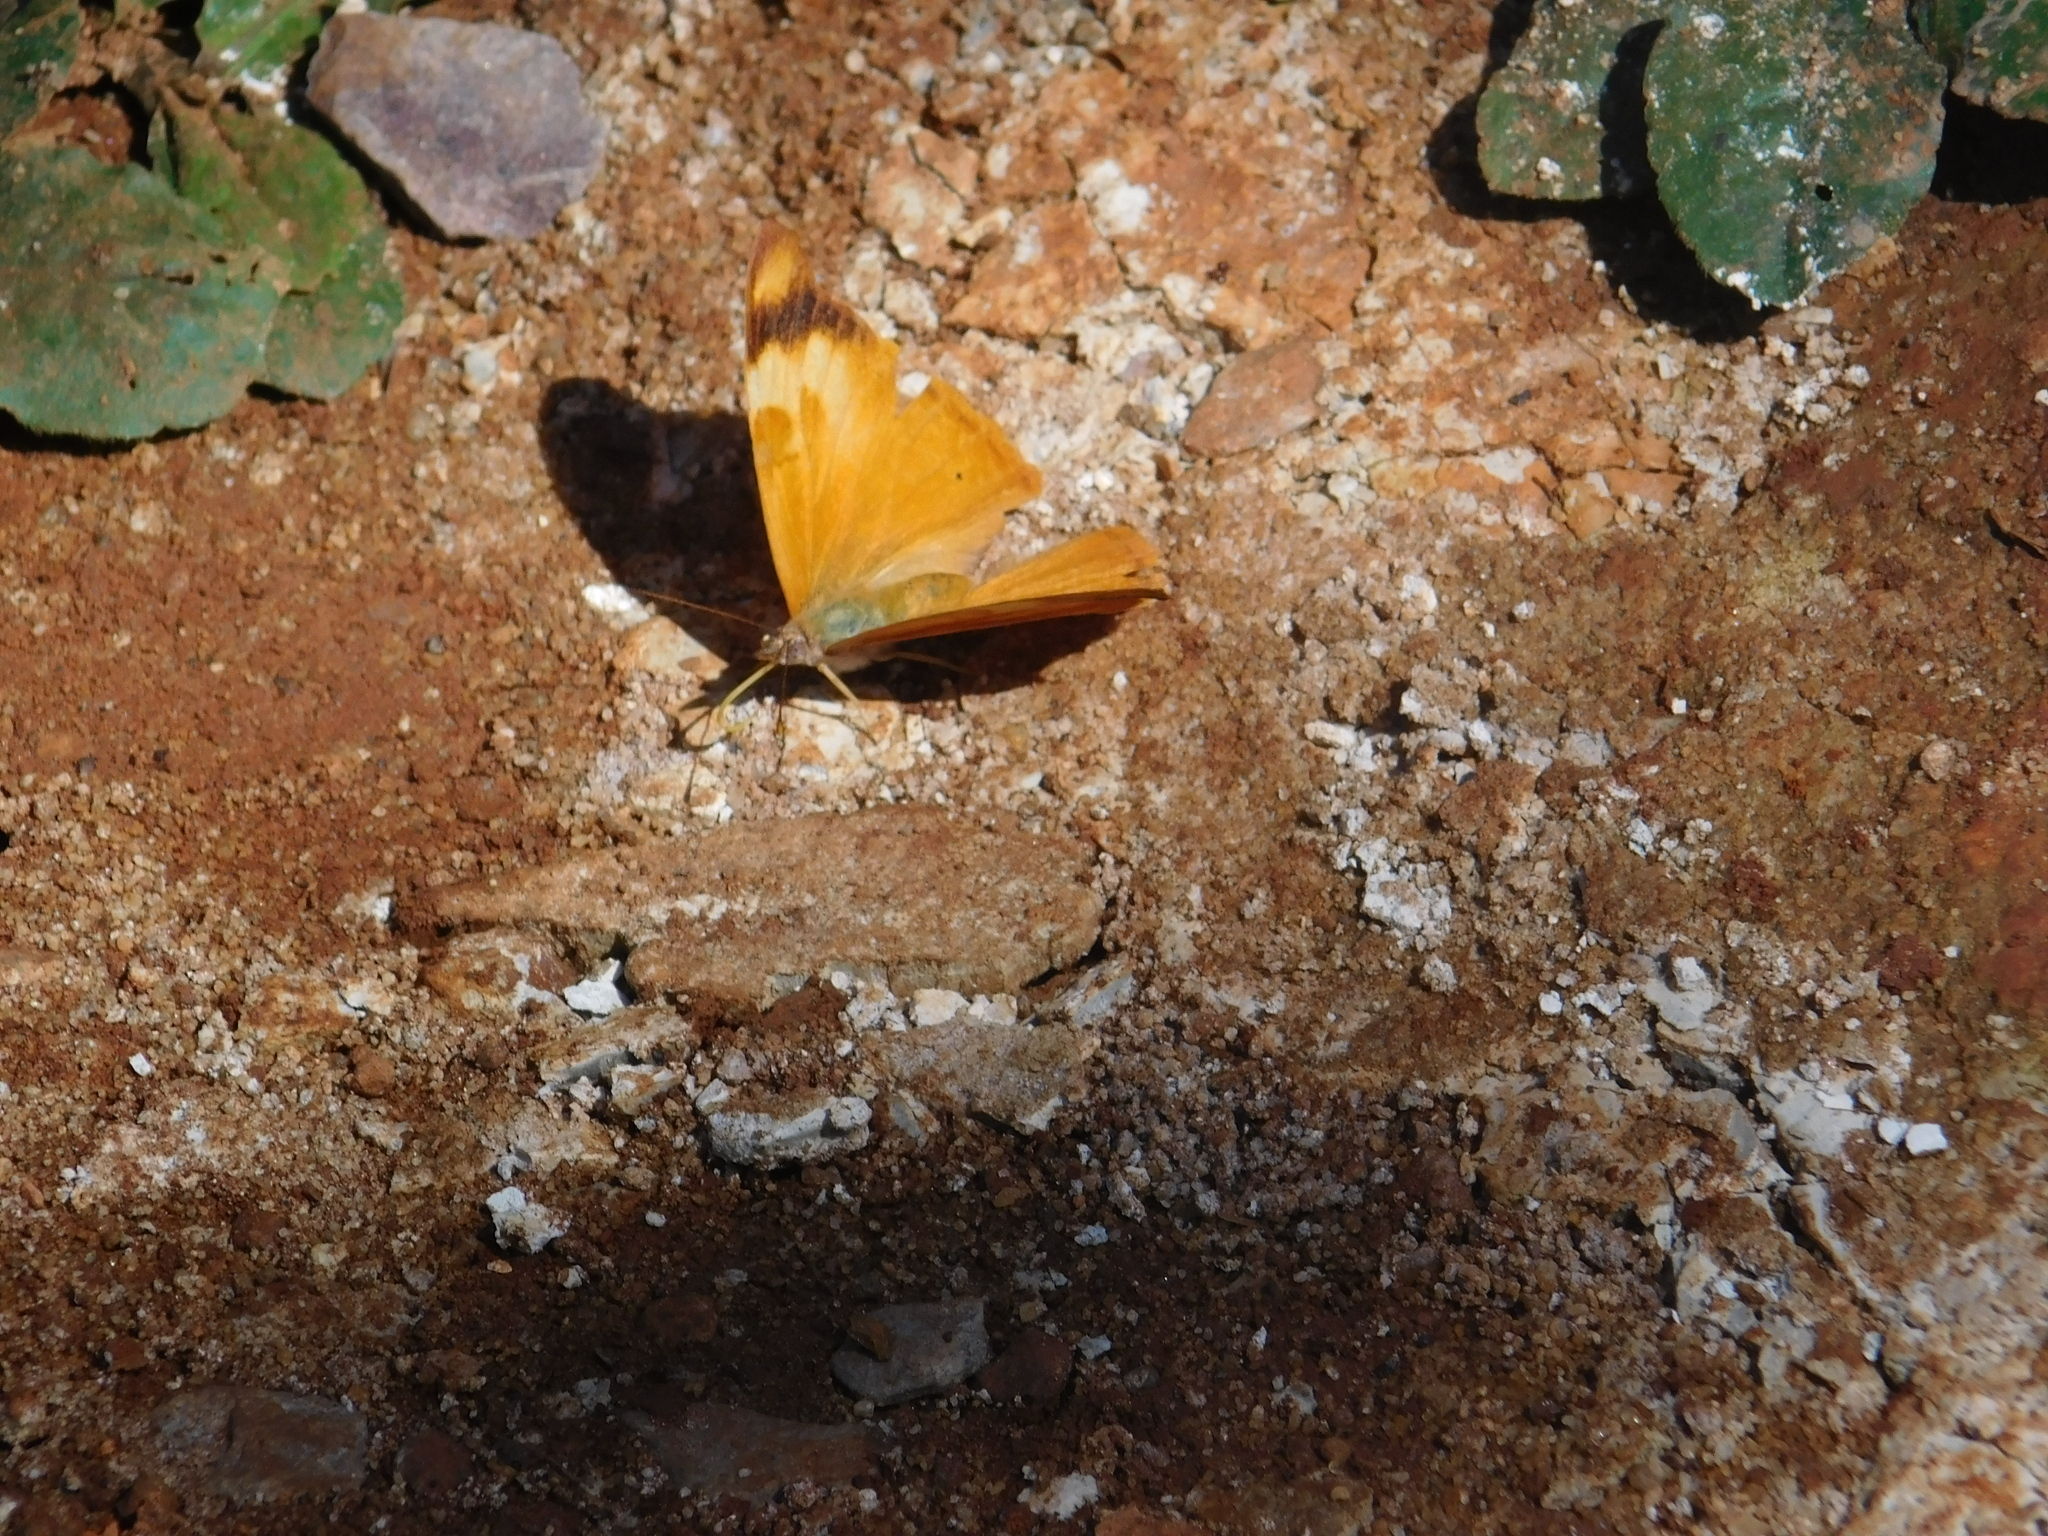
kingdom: Animalia
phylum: Arthropoda
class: Insecta
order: Lepidoptera
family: Nymphalidae
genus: Temenis
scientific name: Temenis laothoe
